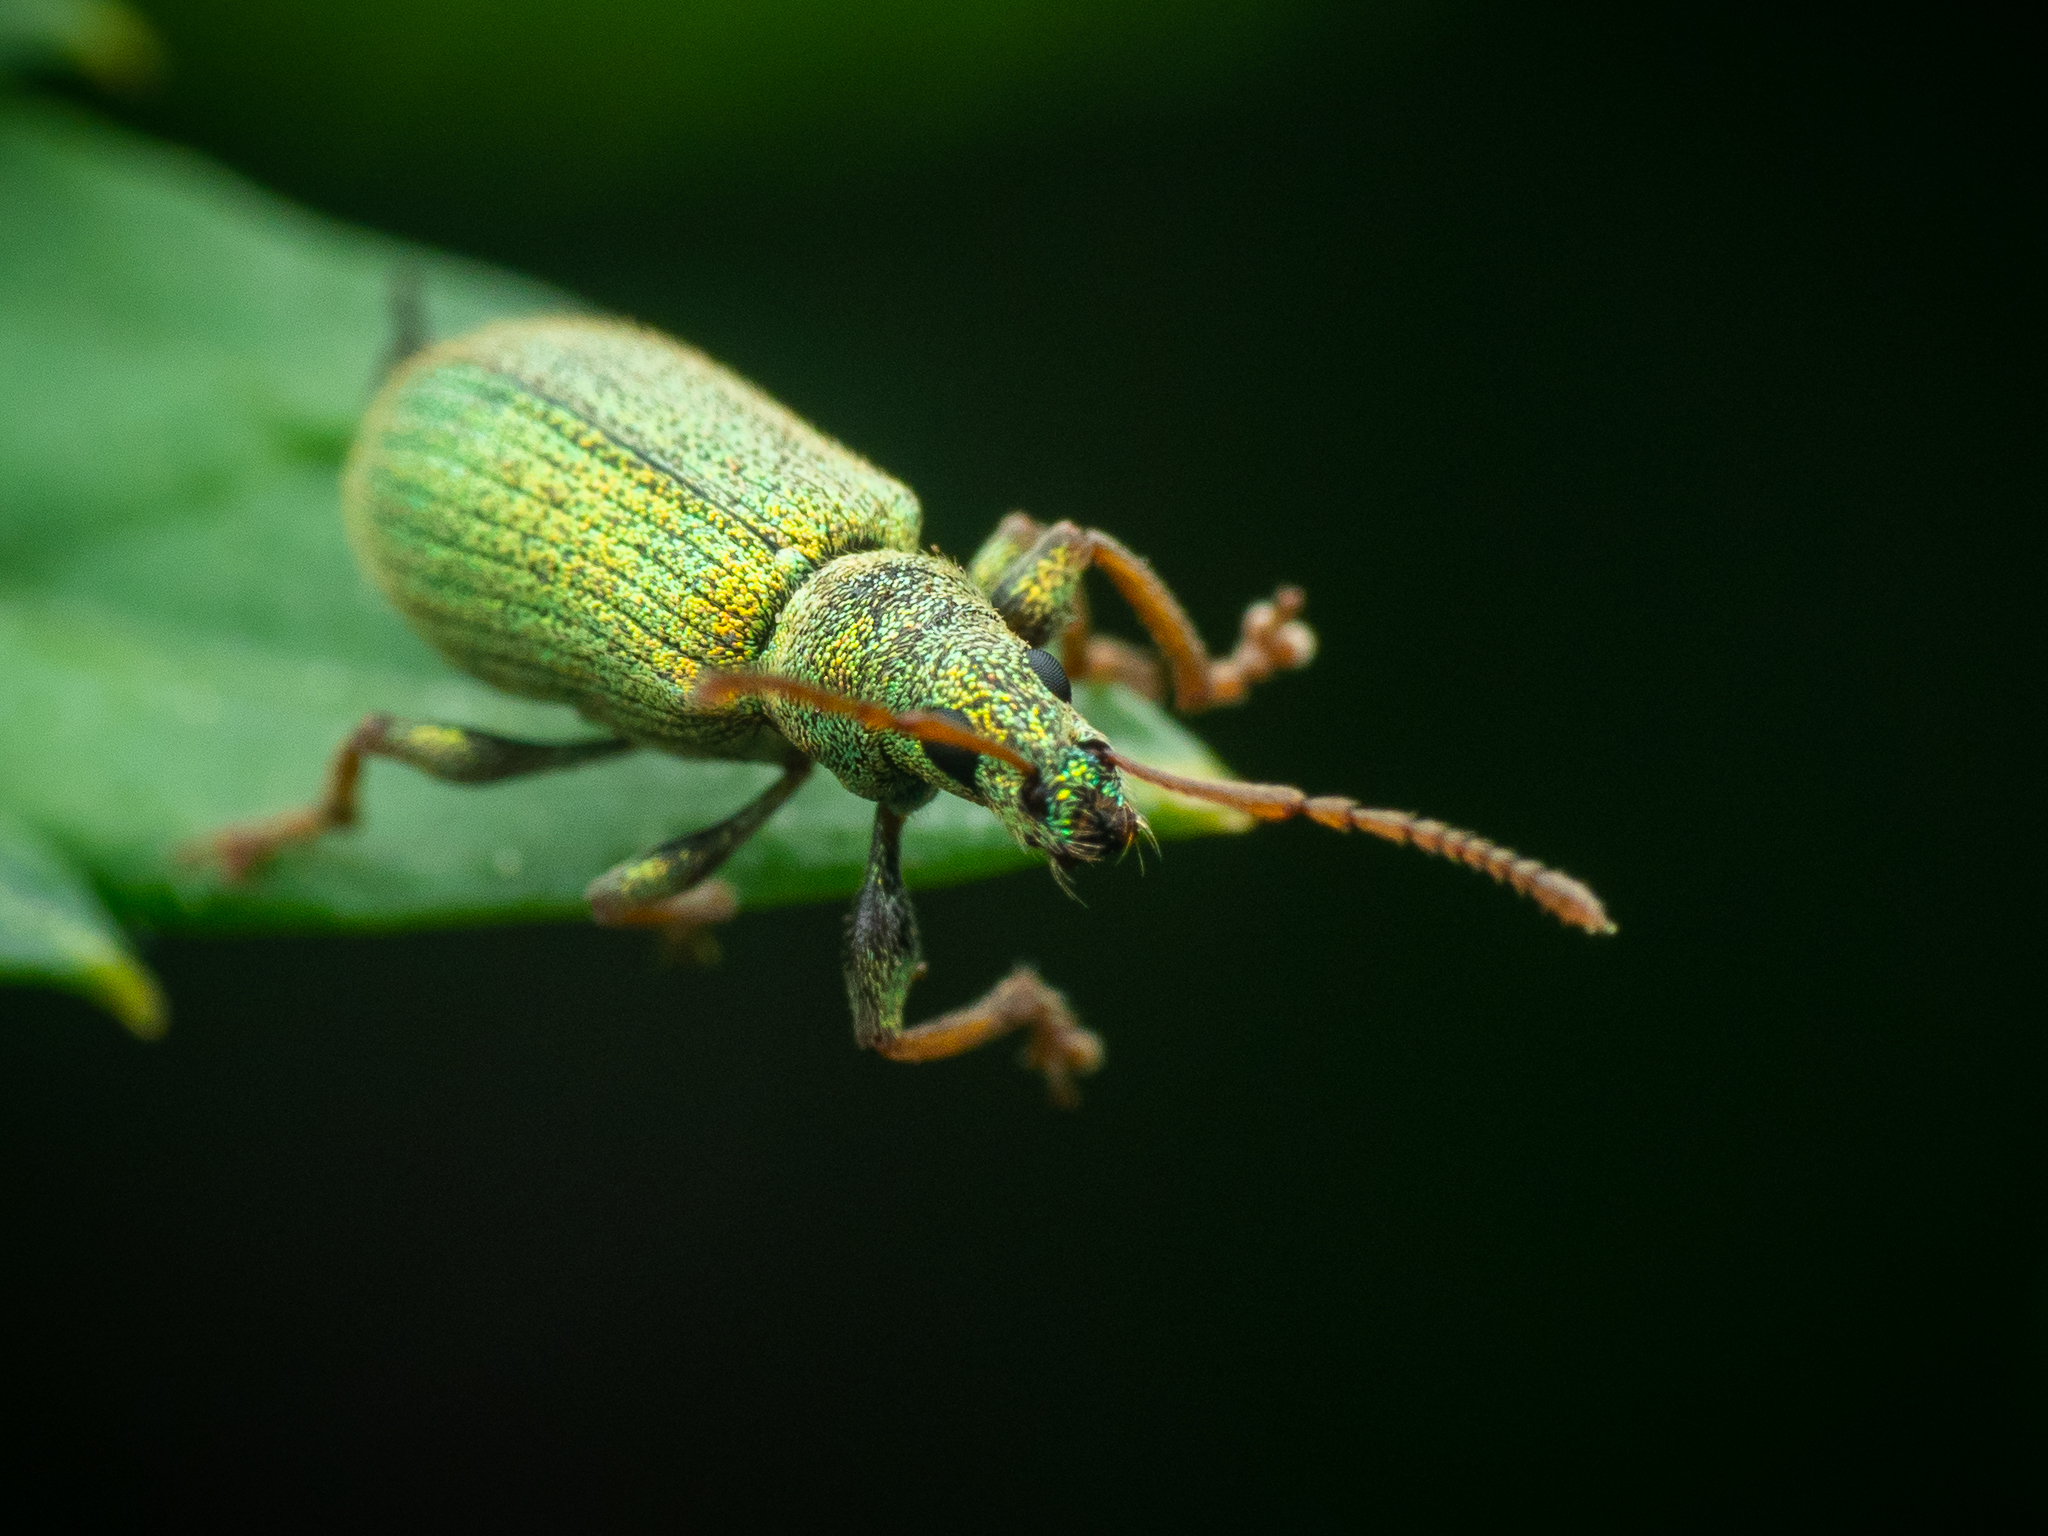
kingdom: Animalia
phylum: Arthropoda
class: Insecta
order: Coleoptera
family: Curculionidae
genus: Phyllobius
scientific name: Phyllobius argentatus
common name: Silver-green leaf weevil
